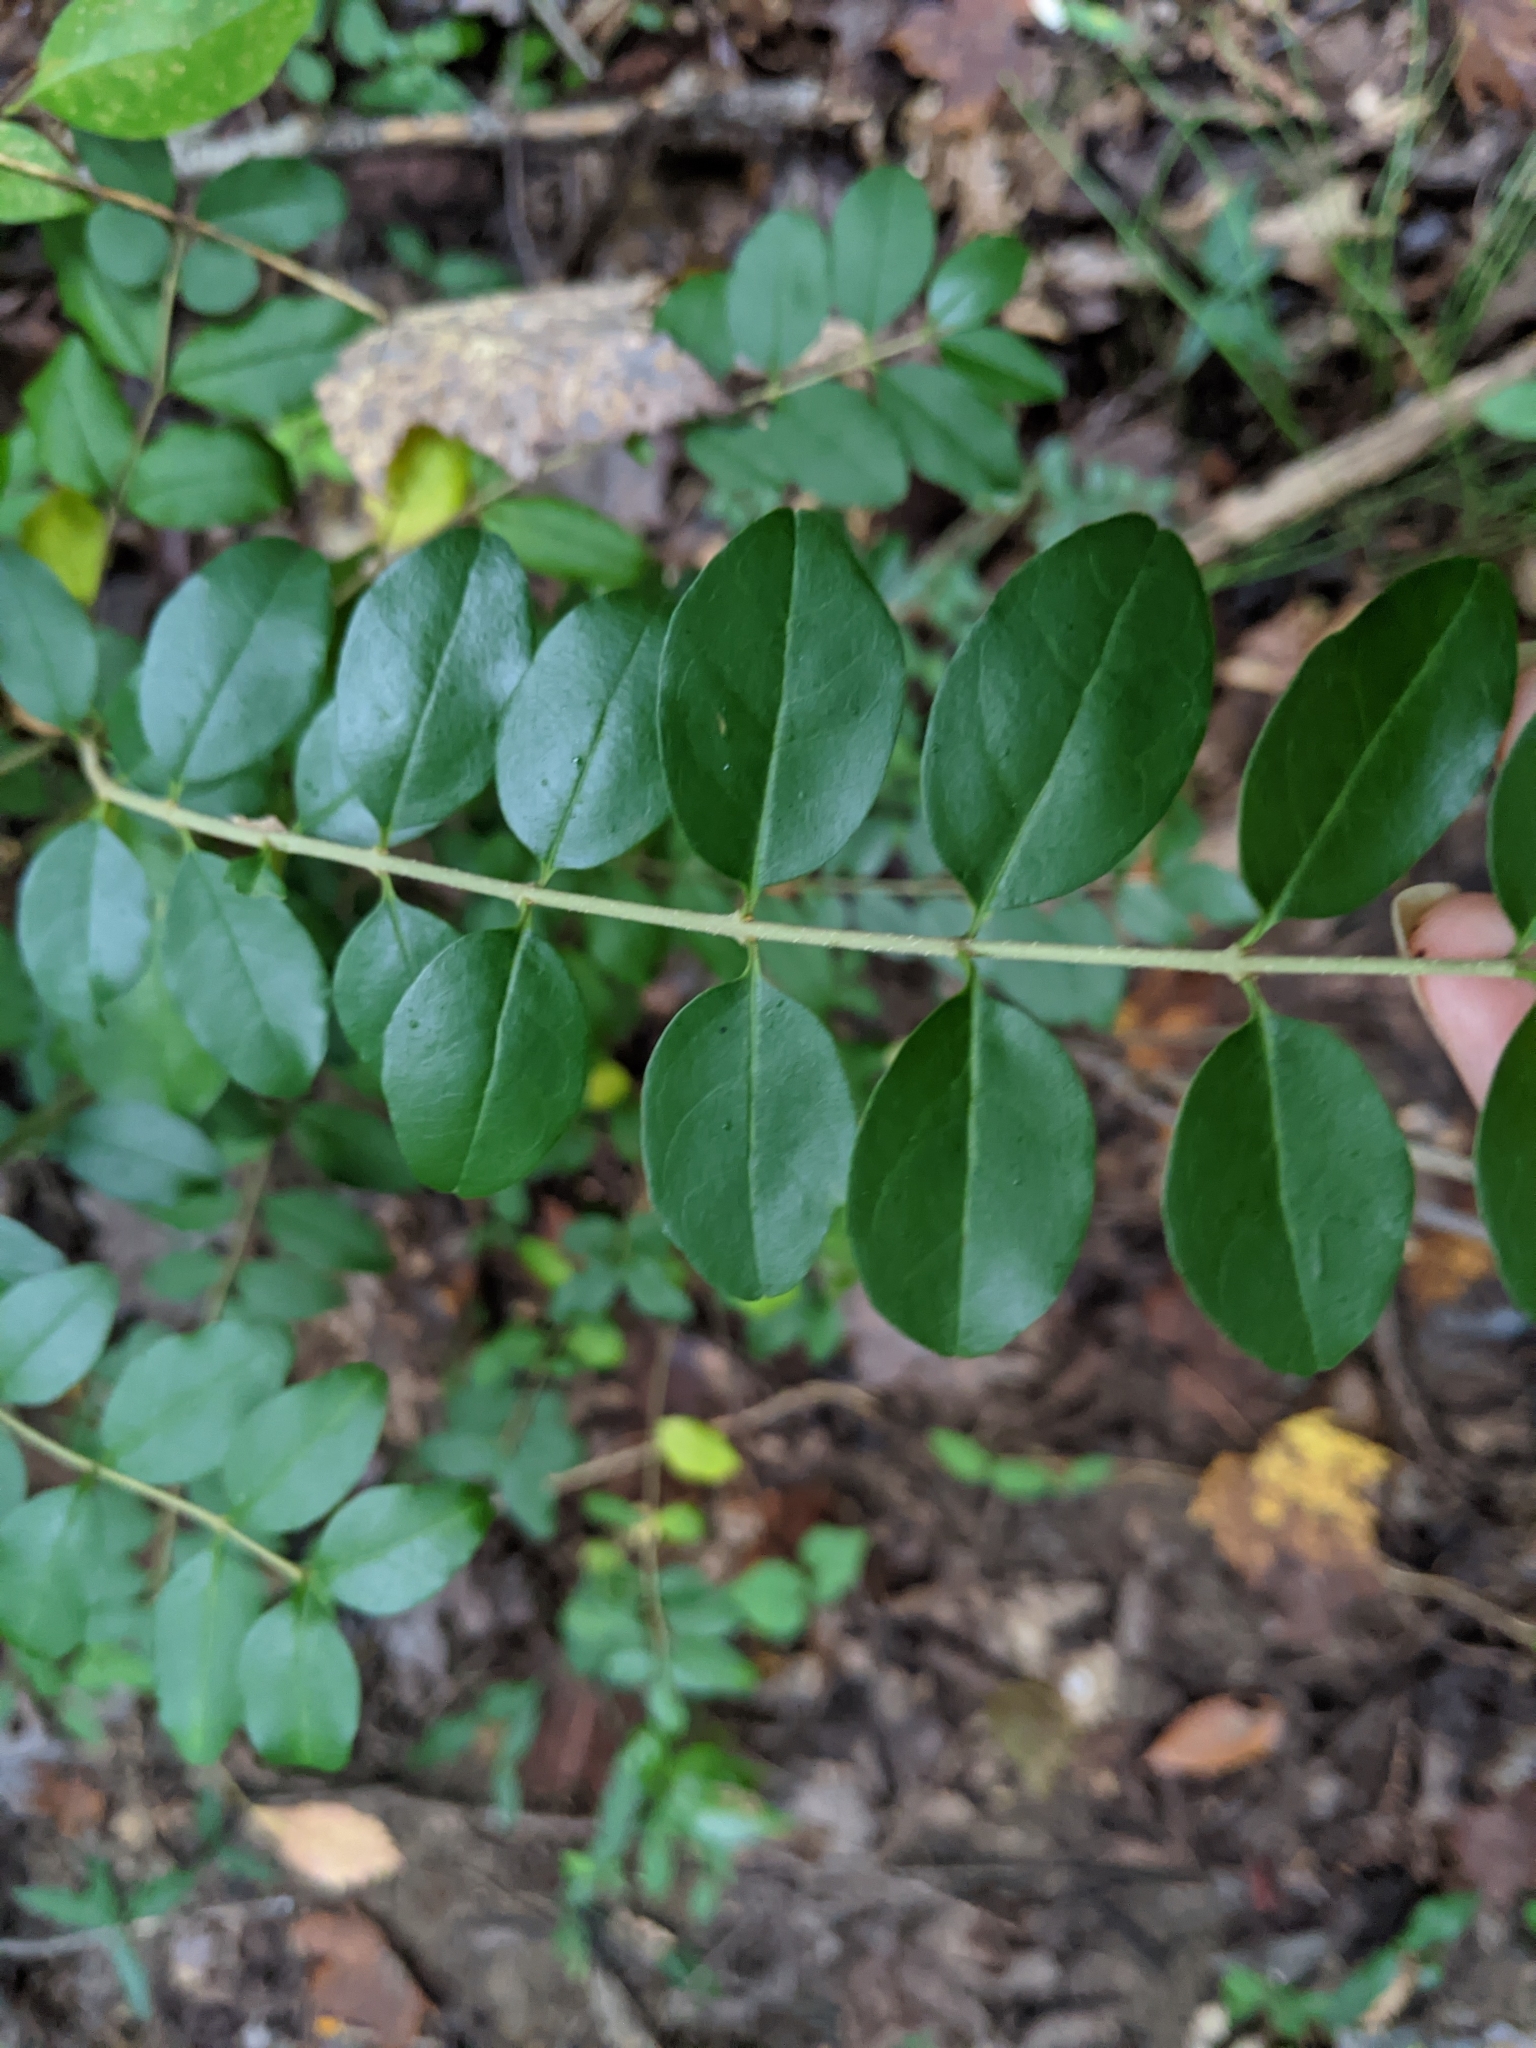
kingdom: Plantae
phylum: Tracheophyta
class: Magnoliopsida
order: Lamiales
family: Oleaceae
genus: Ligustrum
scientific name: Ligustrum sinense
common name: Chinese privet
